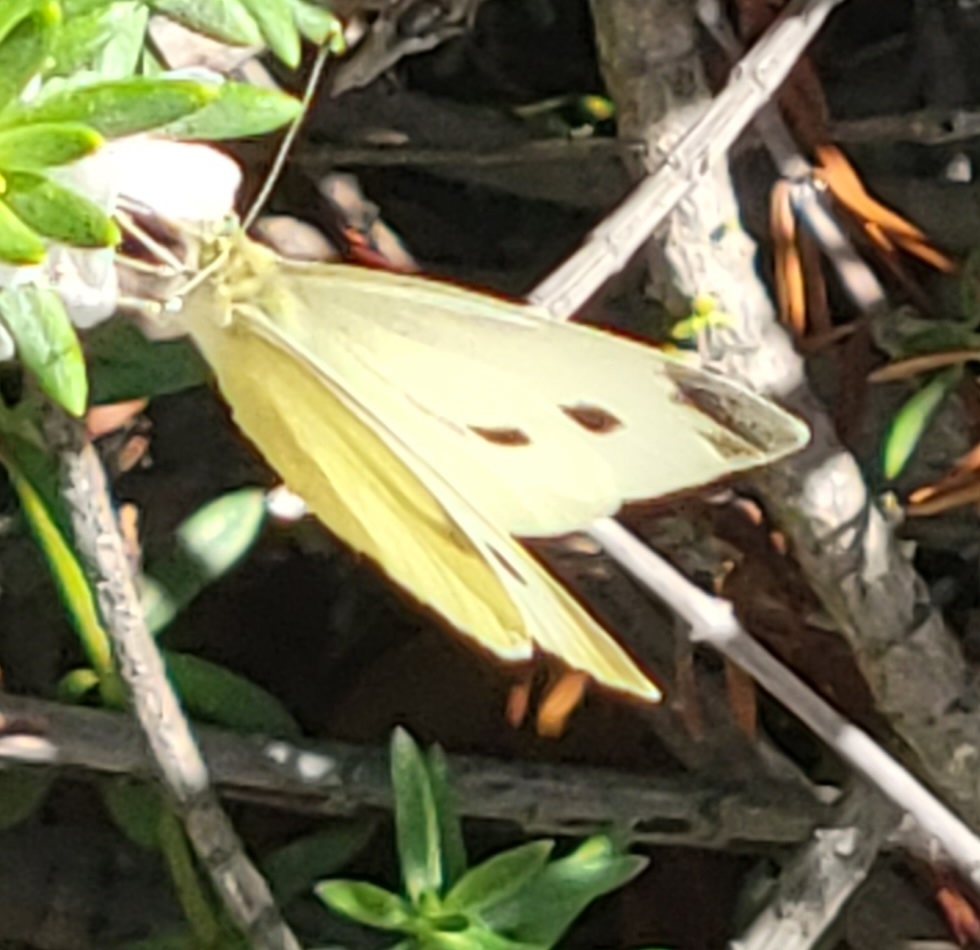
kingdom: Animalia
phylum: Arthropoda
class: Insecta
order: Lepidoptera
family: Pieridae
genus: Pieris
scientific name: Pieris rapae
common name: Small white
